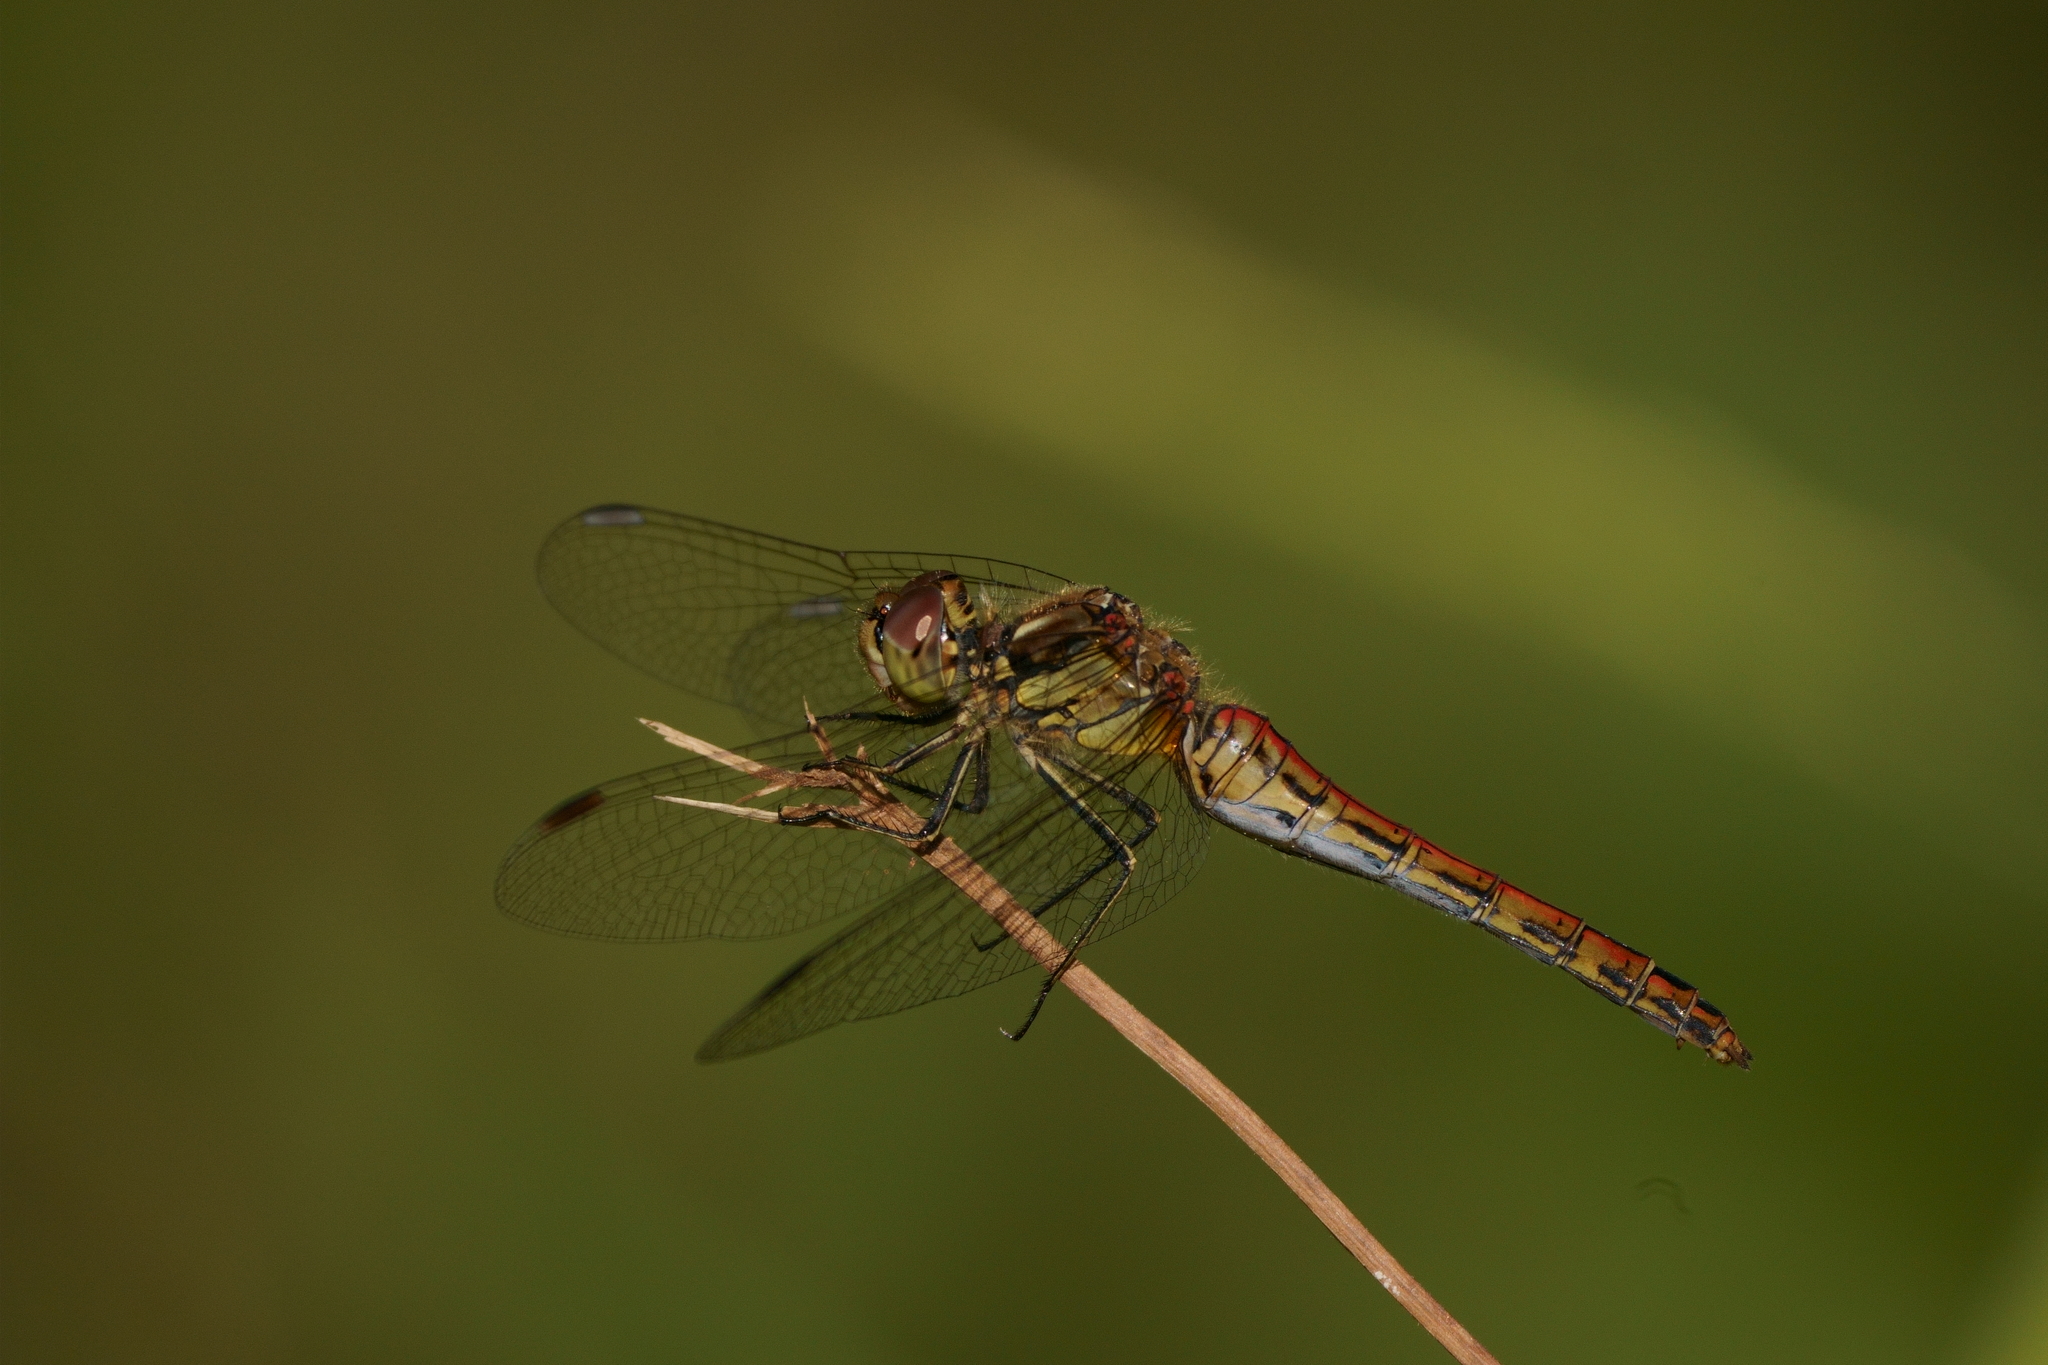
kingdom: Animalia
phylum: Arthropoda
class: Insecta
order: Odonata
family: Libellulidae
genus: Sympetrum
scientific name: Sympetrum vulgatum
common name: Vagrant darter
